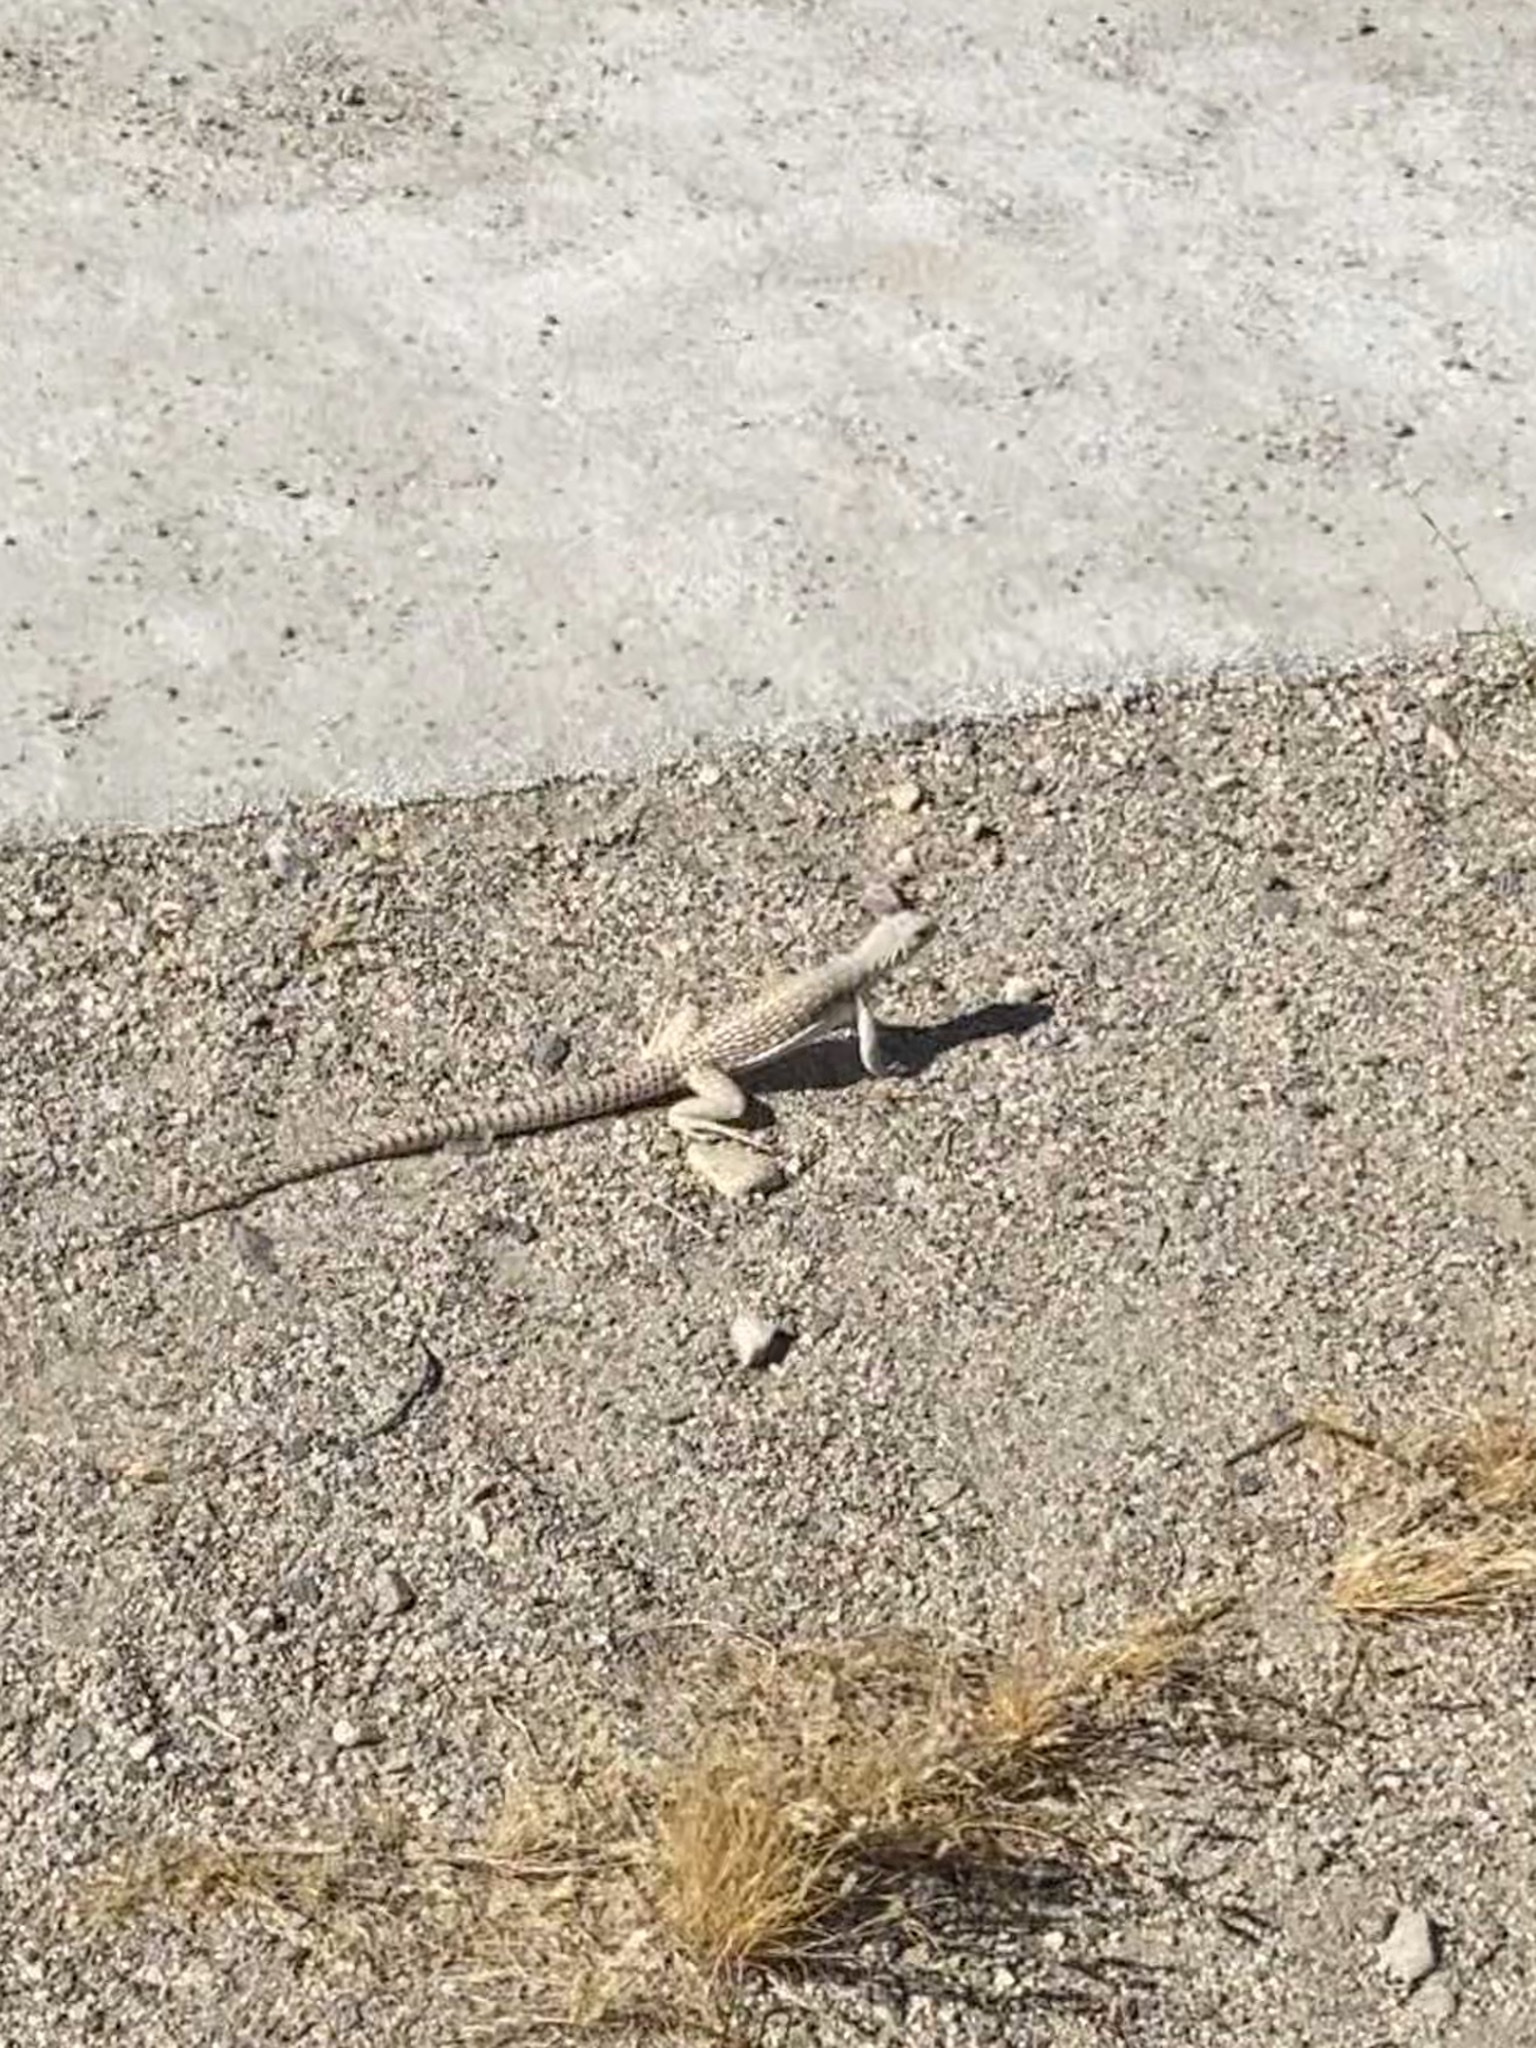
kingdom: Animalia
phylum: Chordata
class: Squamata
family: Iguanidae
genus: Dipsosaurus
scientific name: Dipsosaurus dorsalis
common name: Desert iguana
